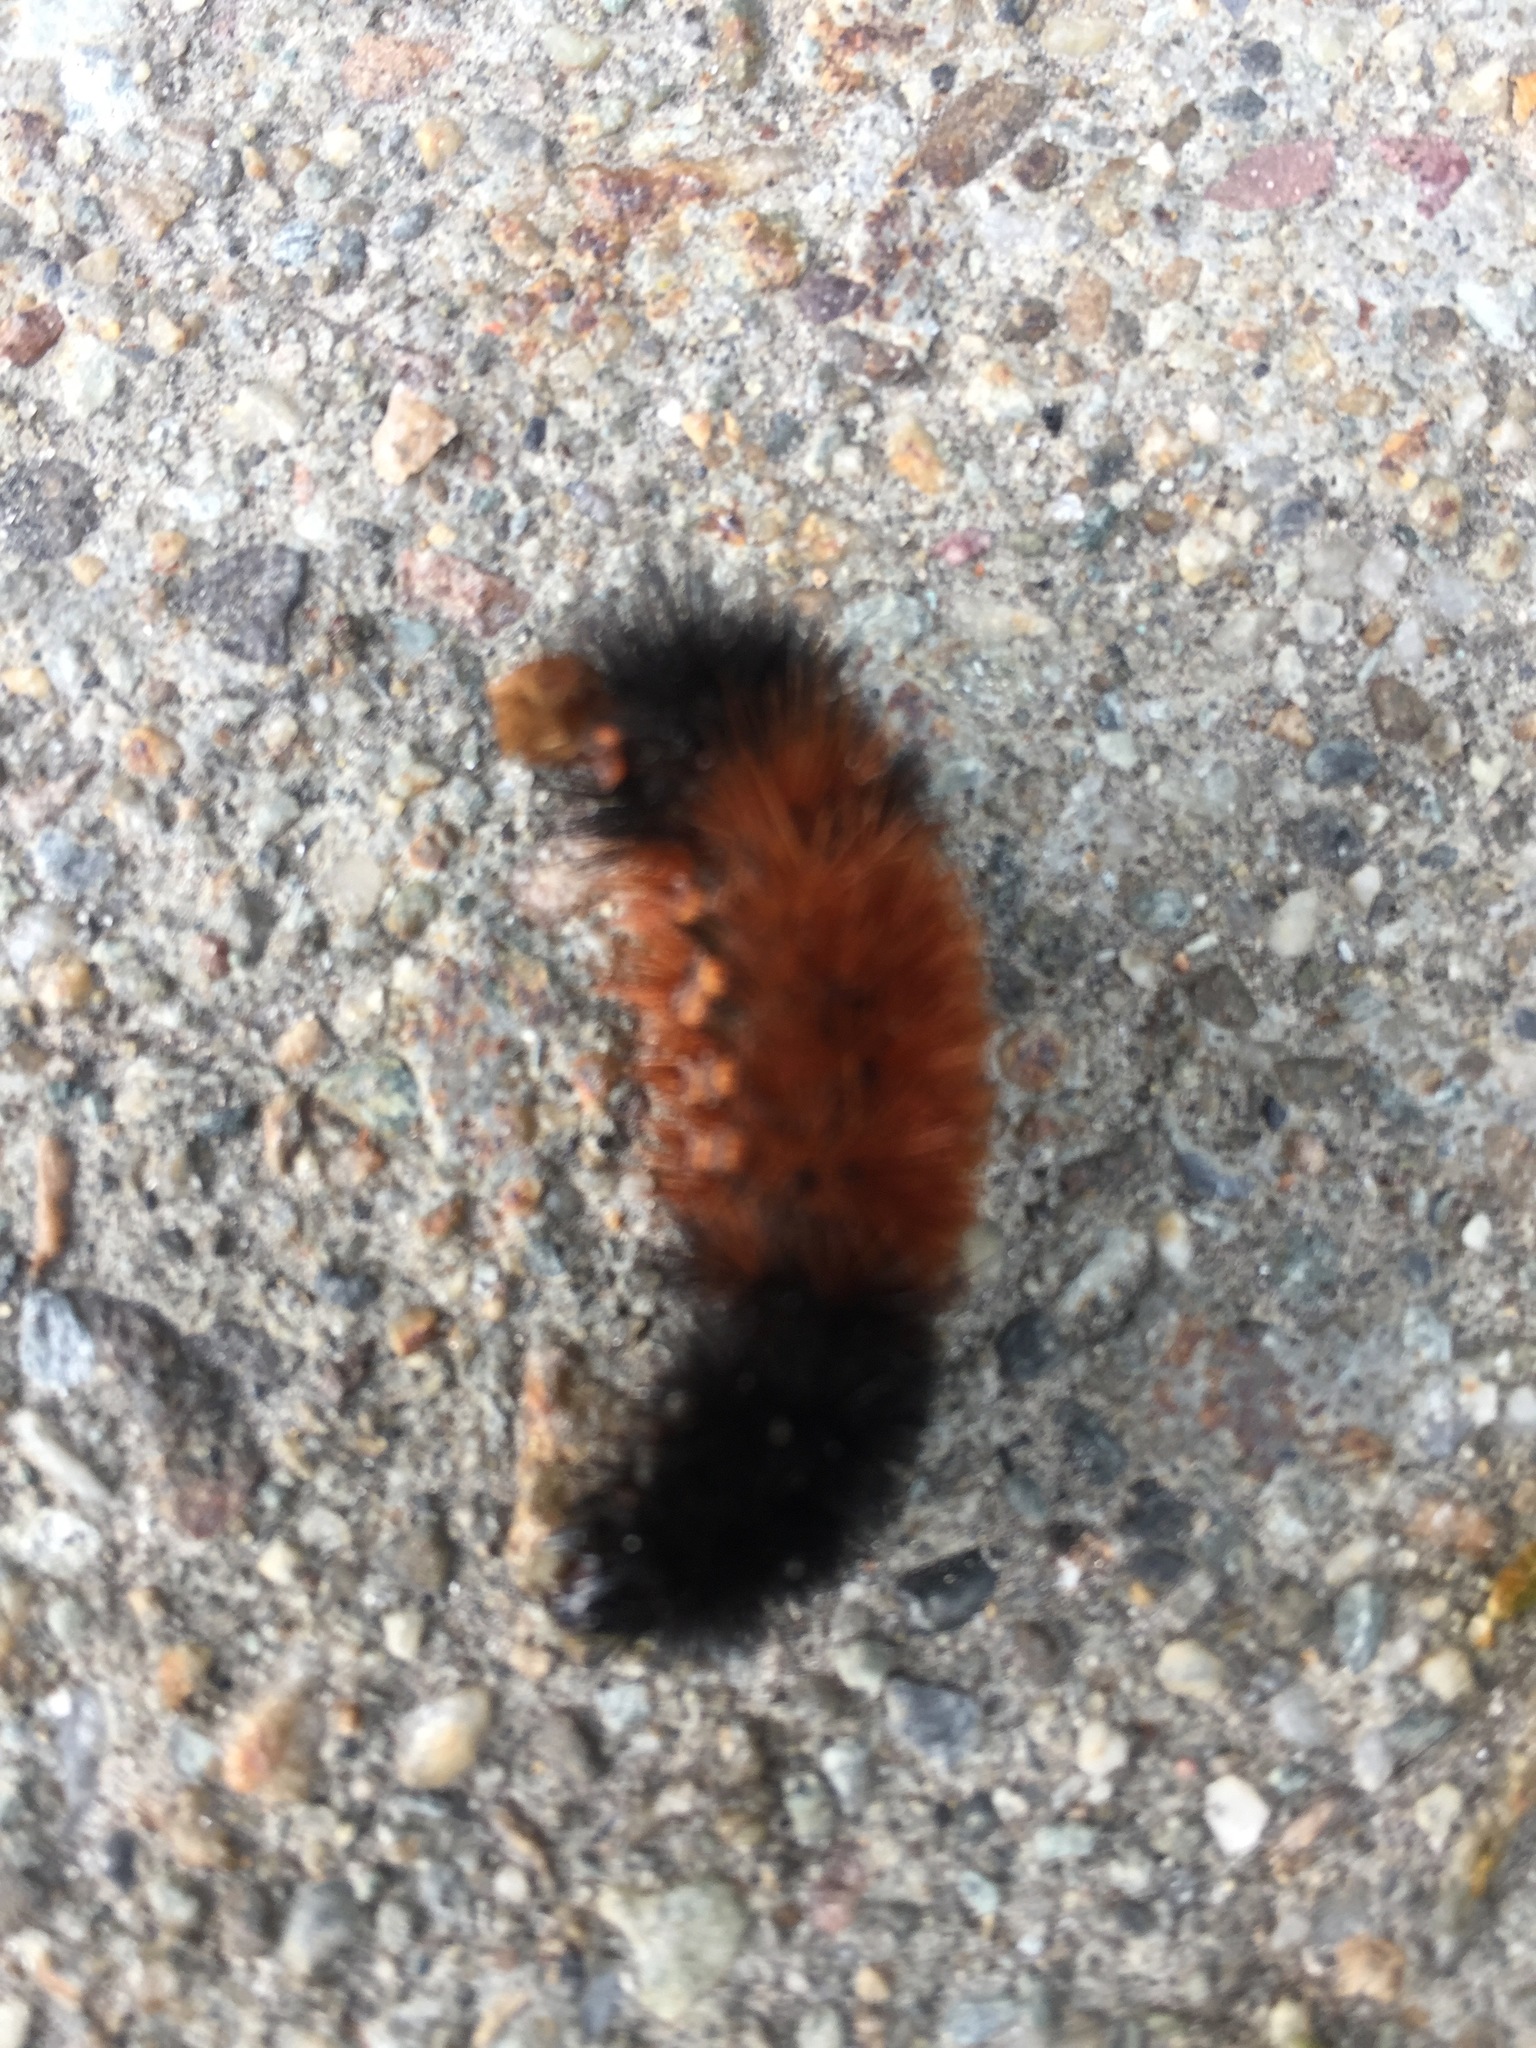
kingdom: Animalia
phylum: Arthropoda
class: Insecta
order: Lepidoptera
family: Erebidae
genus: Pyrrharctia
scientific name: Pyrrharctia isabella
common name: Isabella tiger moth
